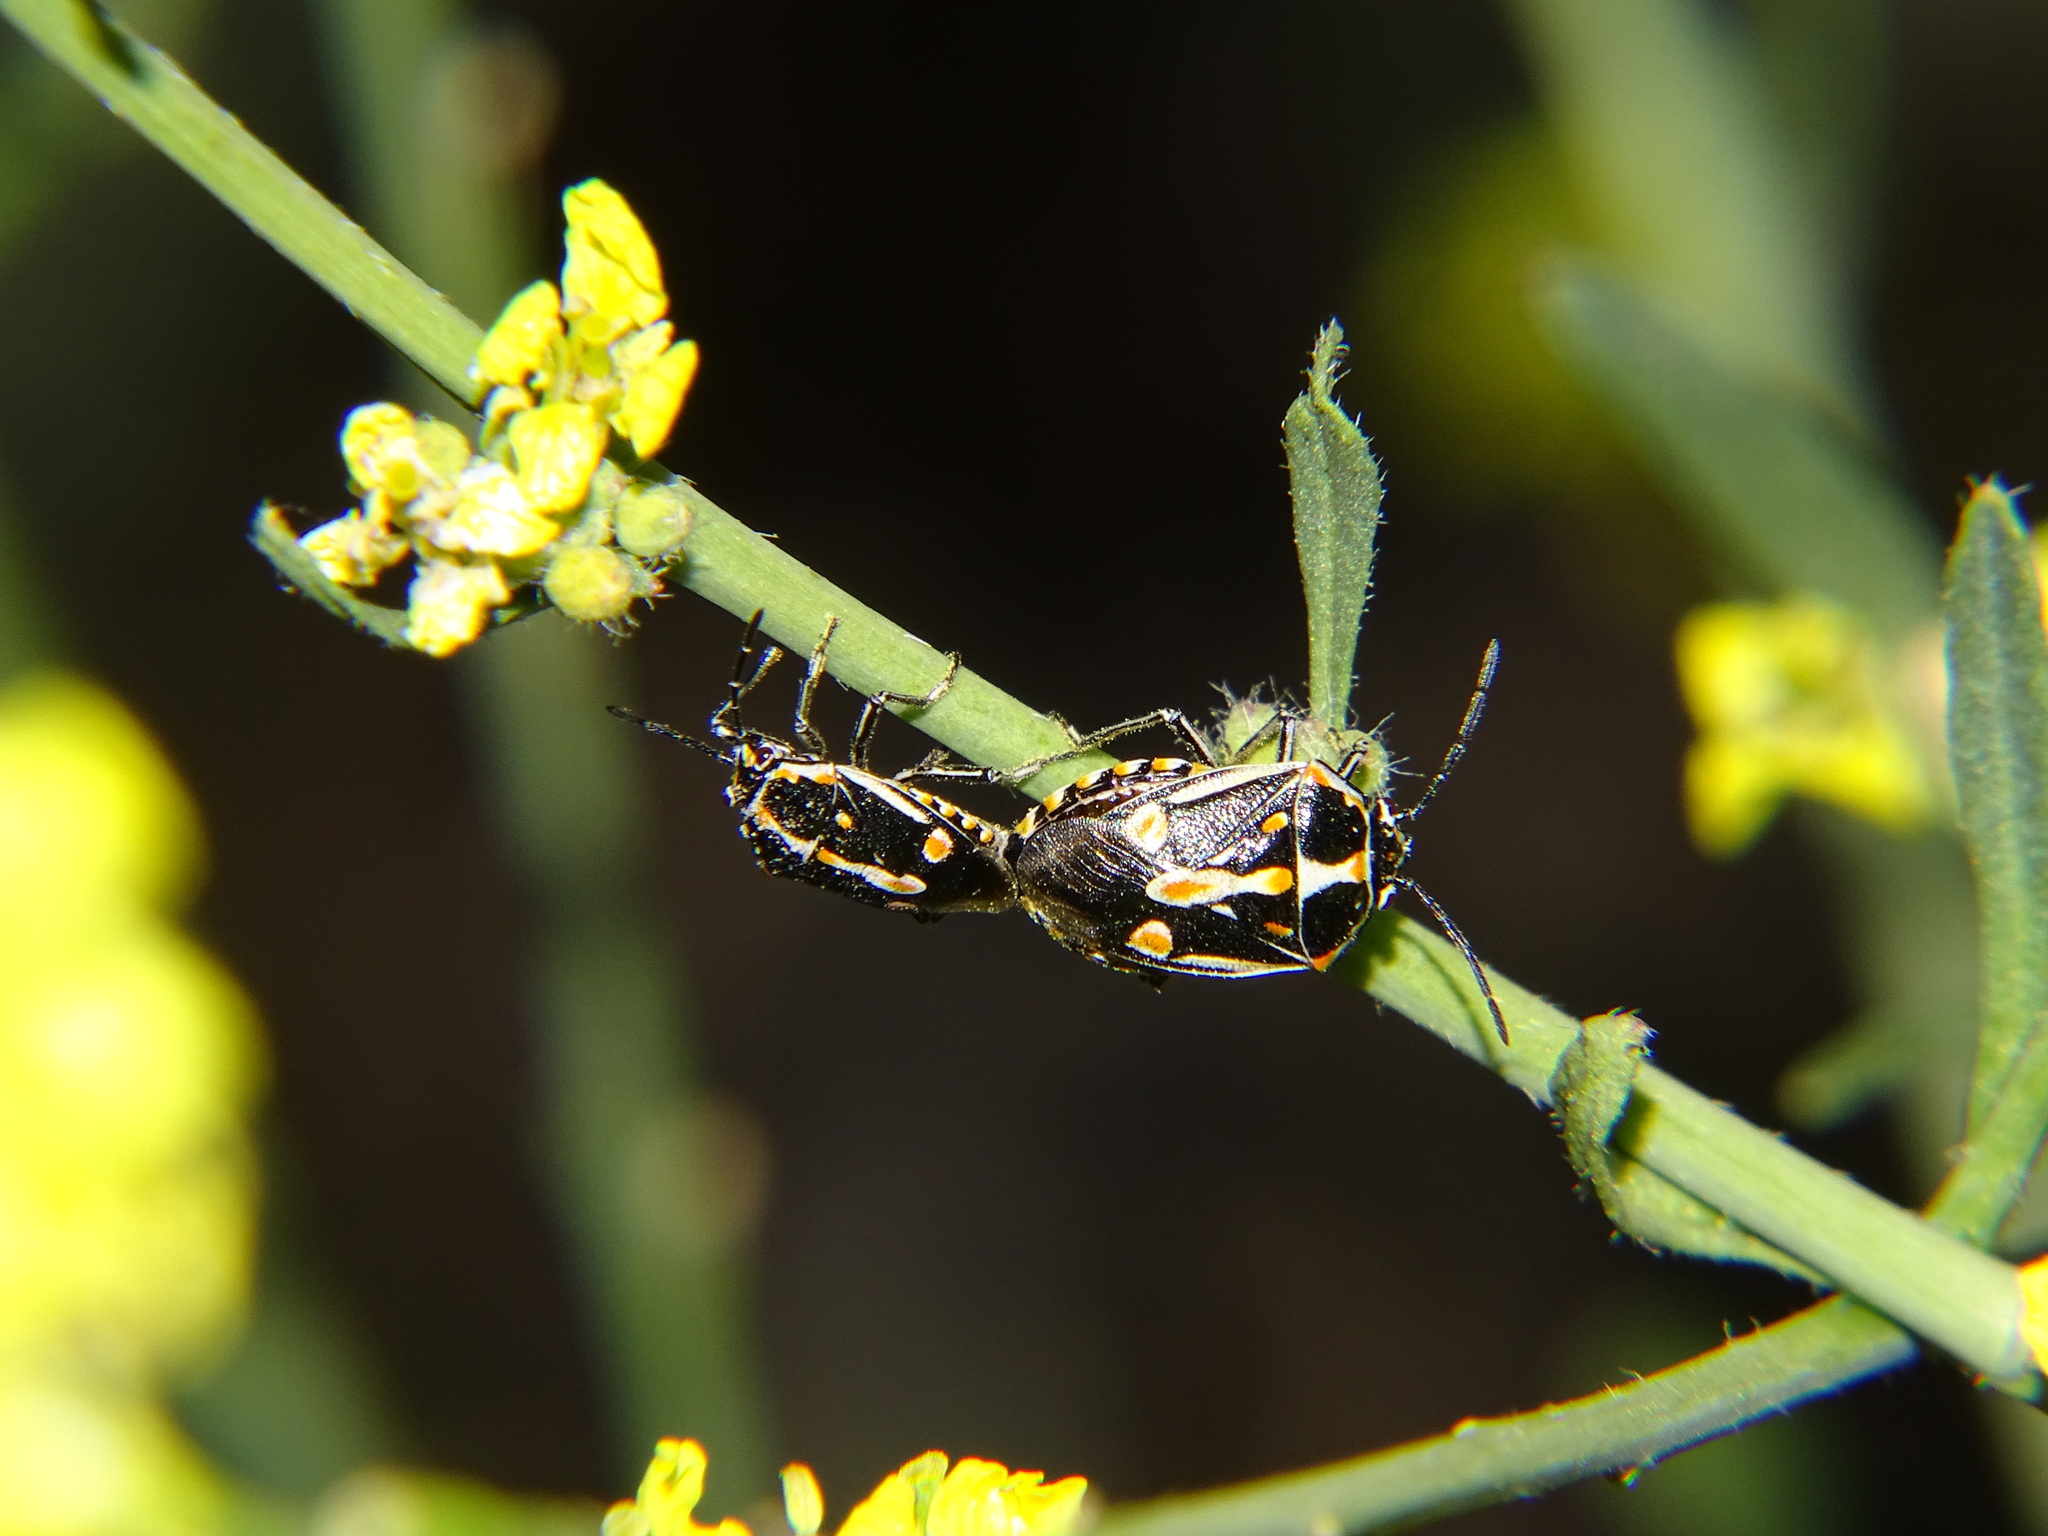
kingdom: Animalia
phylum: Arthropoda
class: Insecta
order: Hemiptera
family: Pentatomidae
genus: Bagrada
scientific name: Bagrada hilaris
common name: Bagrada bug
